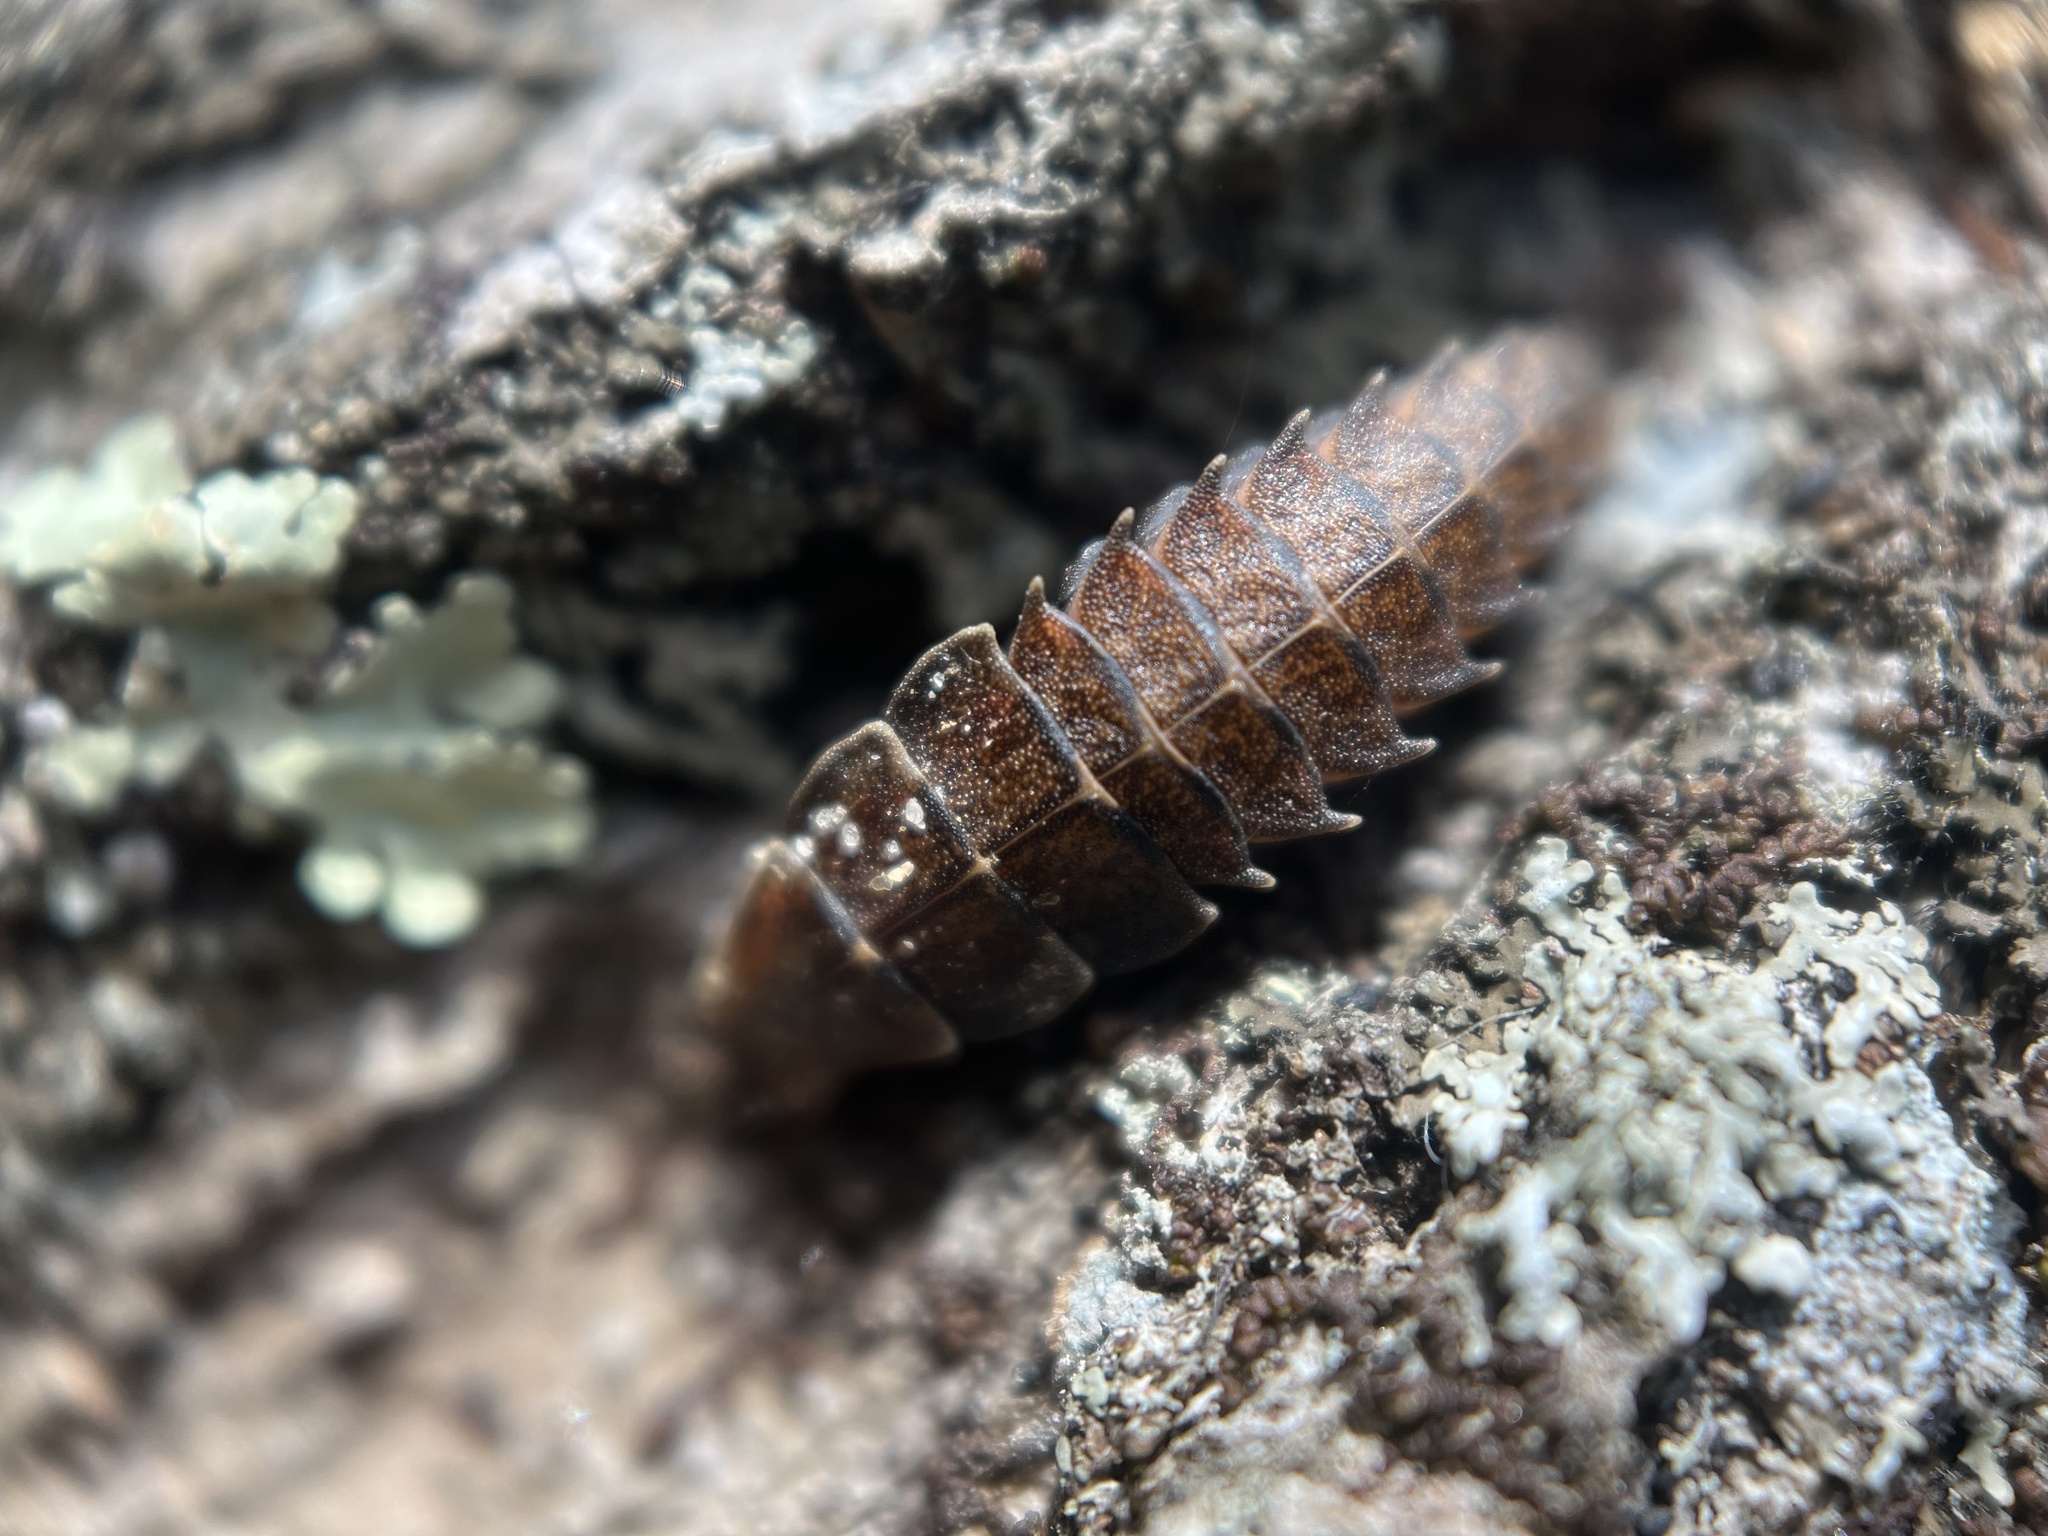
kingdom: Animalia
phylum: Arthropoda
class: Insecta
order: Coleoptera
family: Lampyridae
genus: Pyractomena
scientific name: Pyractomena
